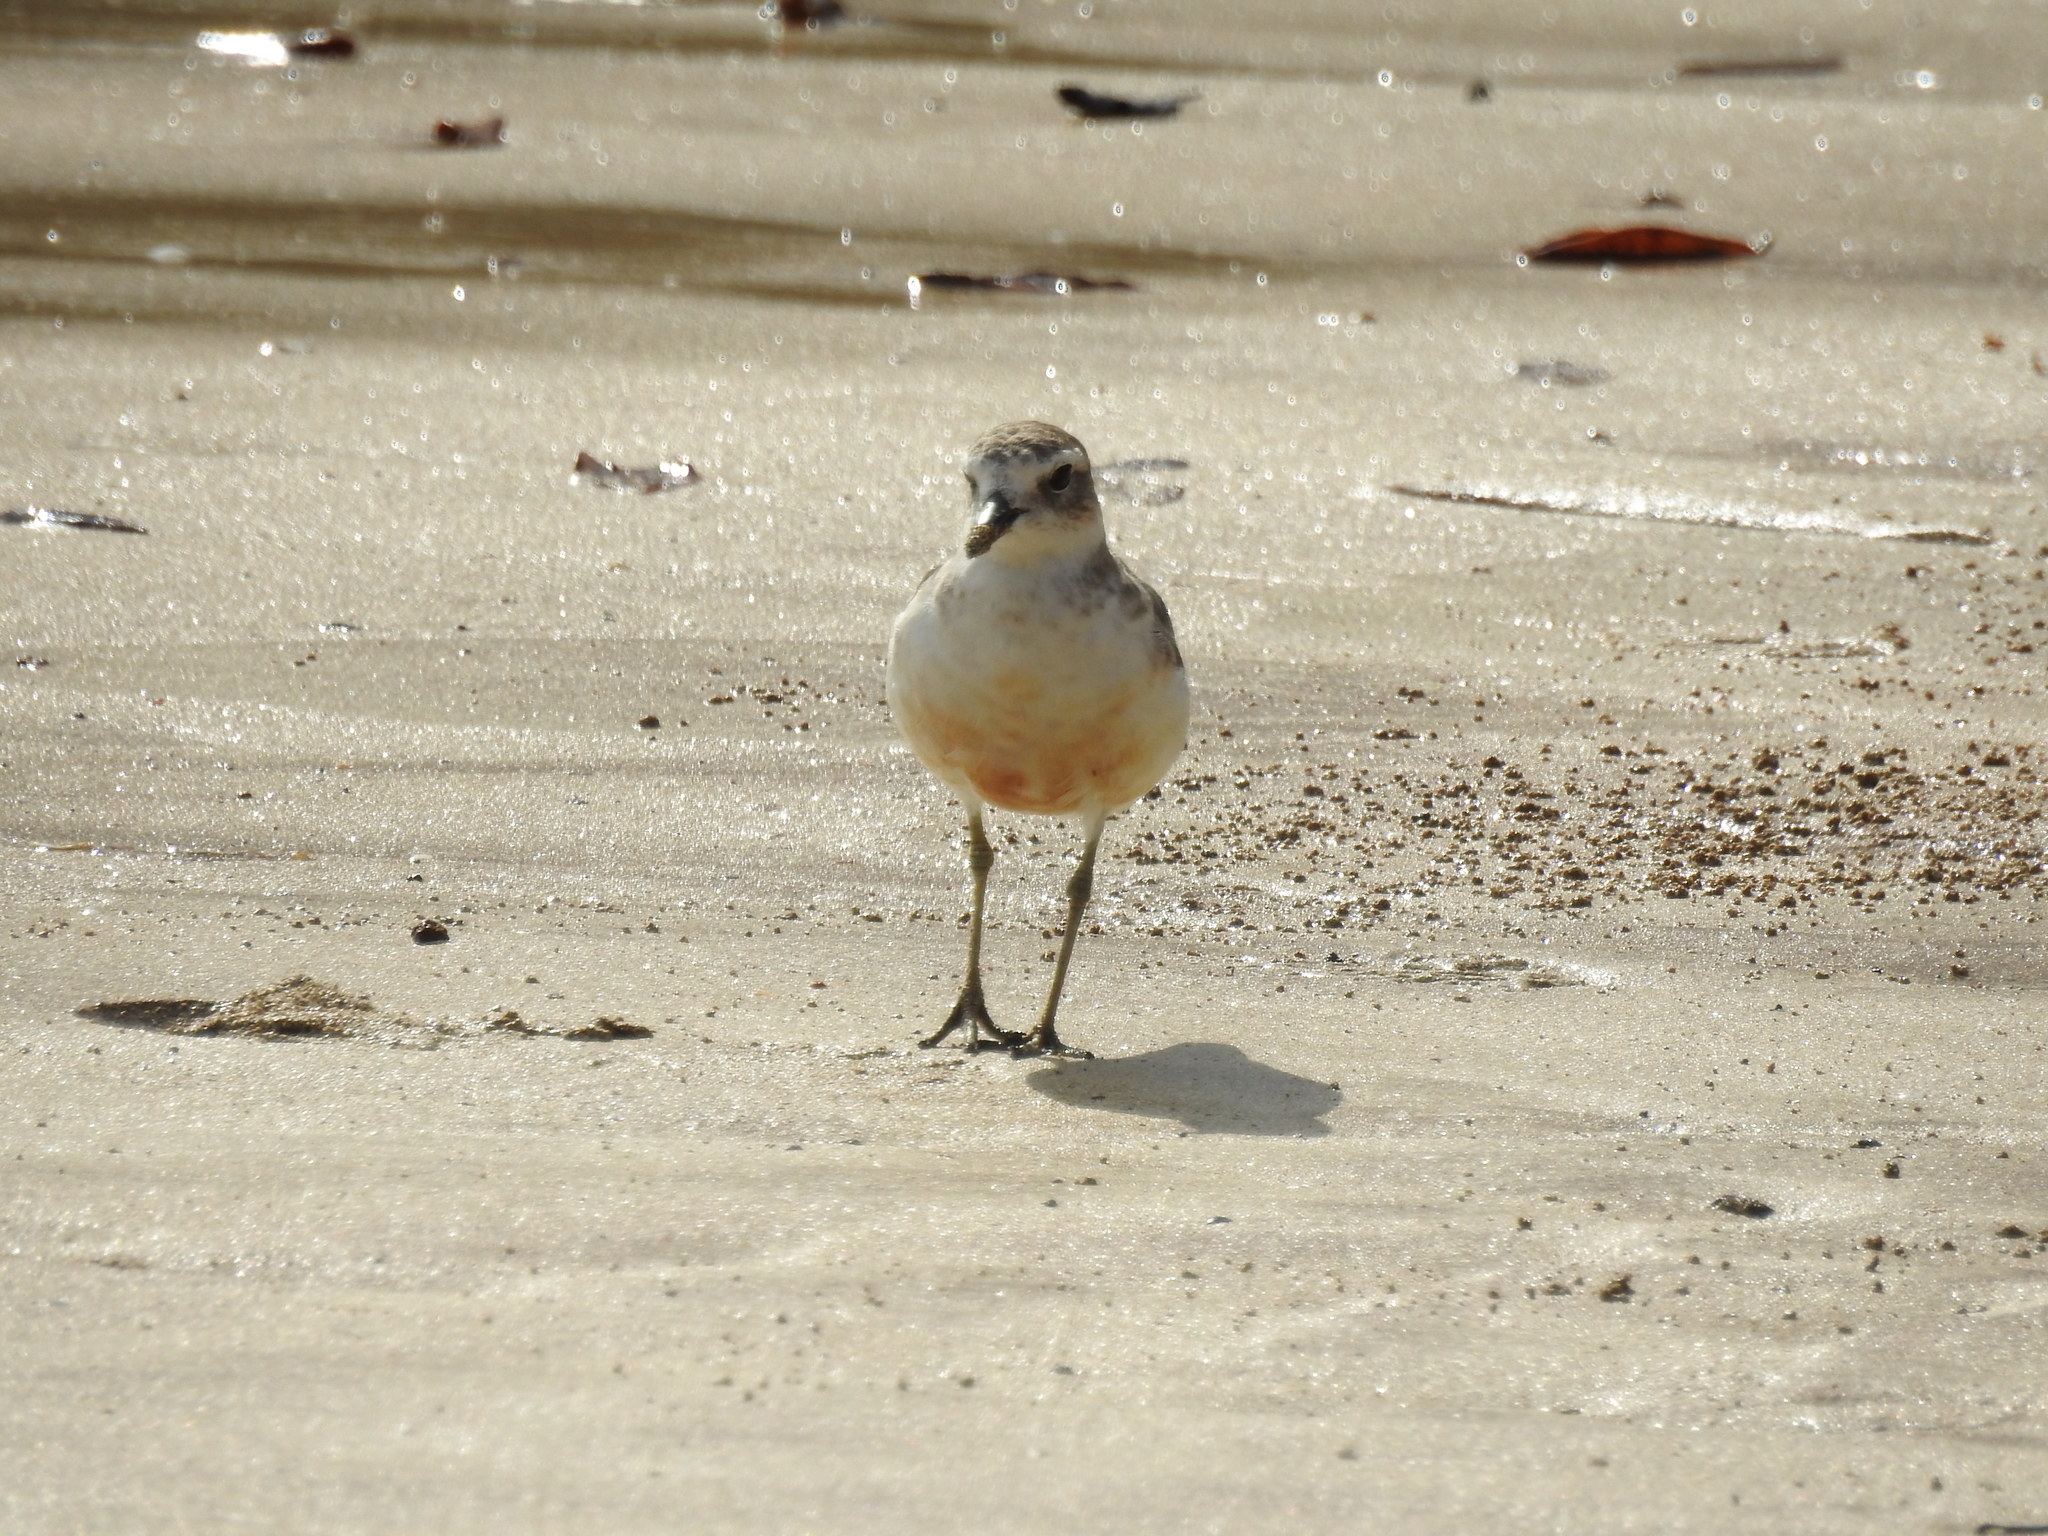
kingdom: Animalia
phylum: Chordata
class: Aves
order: Charadriiformes
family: Charadriidae
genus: Anarhynchus
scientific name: Anarhynchus
